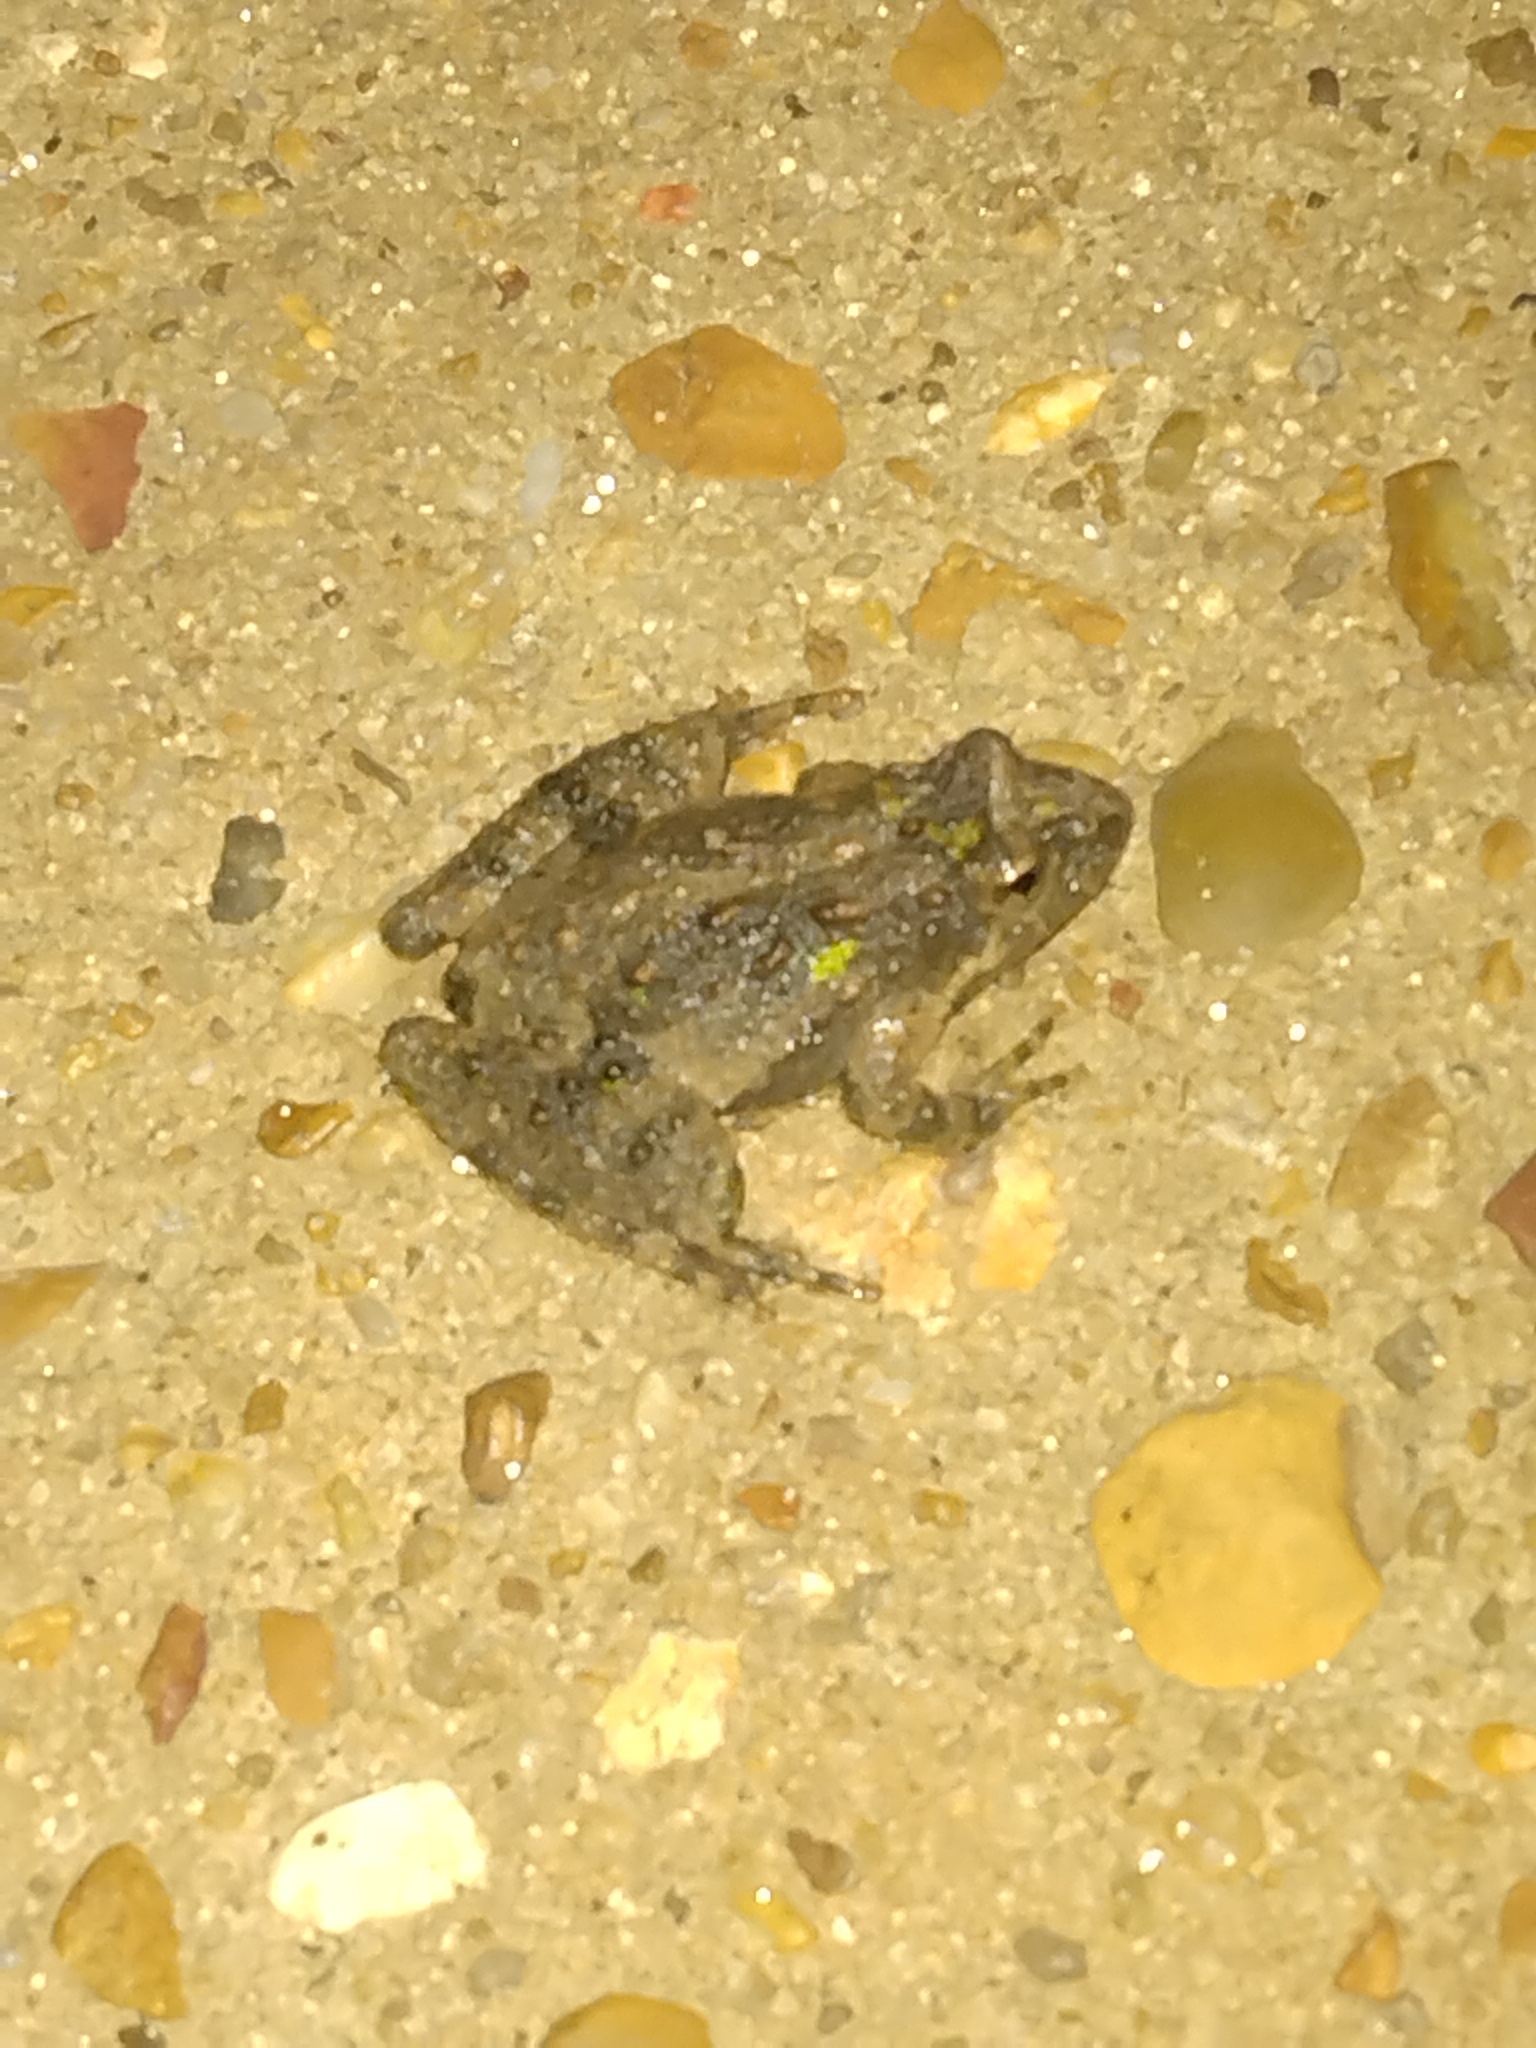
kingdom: Animalia
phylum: Chordata
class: Amphibia
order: Anura
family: Hylidae
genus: Acris
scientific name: Acris blanchardi
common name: Blanchard's cricket frog
